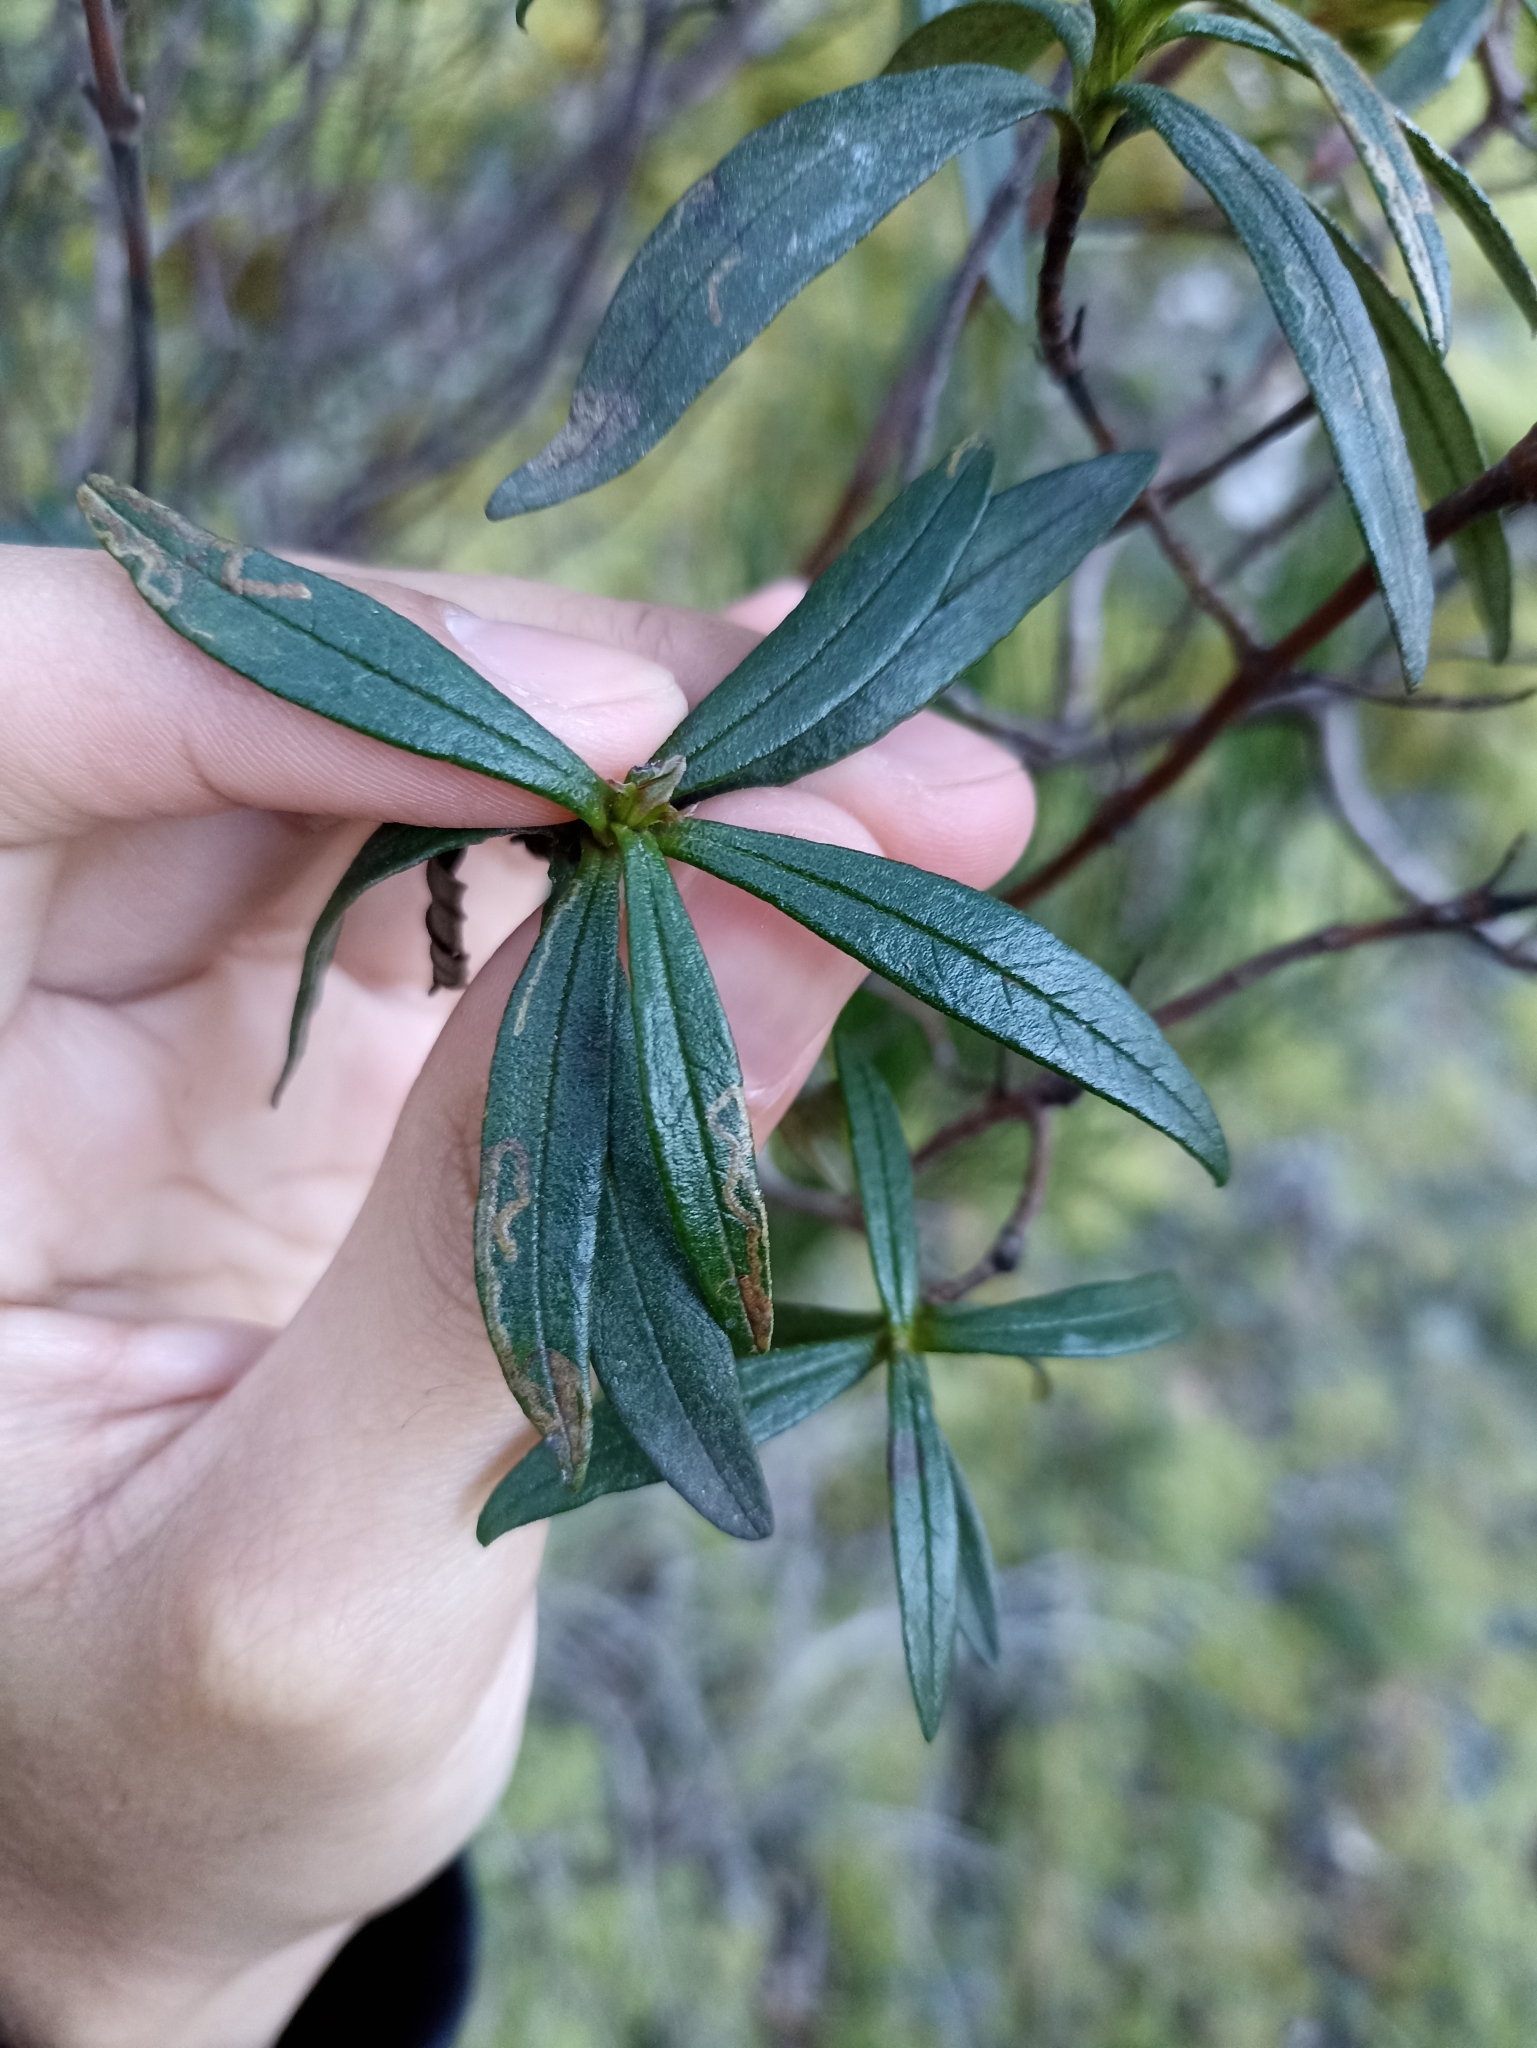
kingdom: Animalia
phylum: Arthropoda
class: Insecta
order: Lepidoptera
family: Nepticulidae
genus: Parafomoria
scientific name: Parafomoria cistivora
